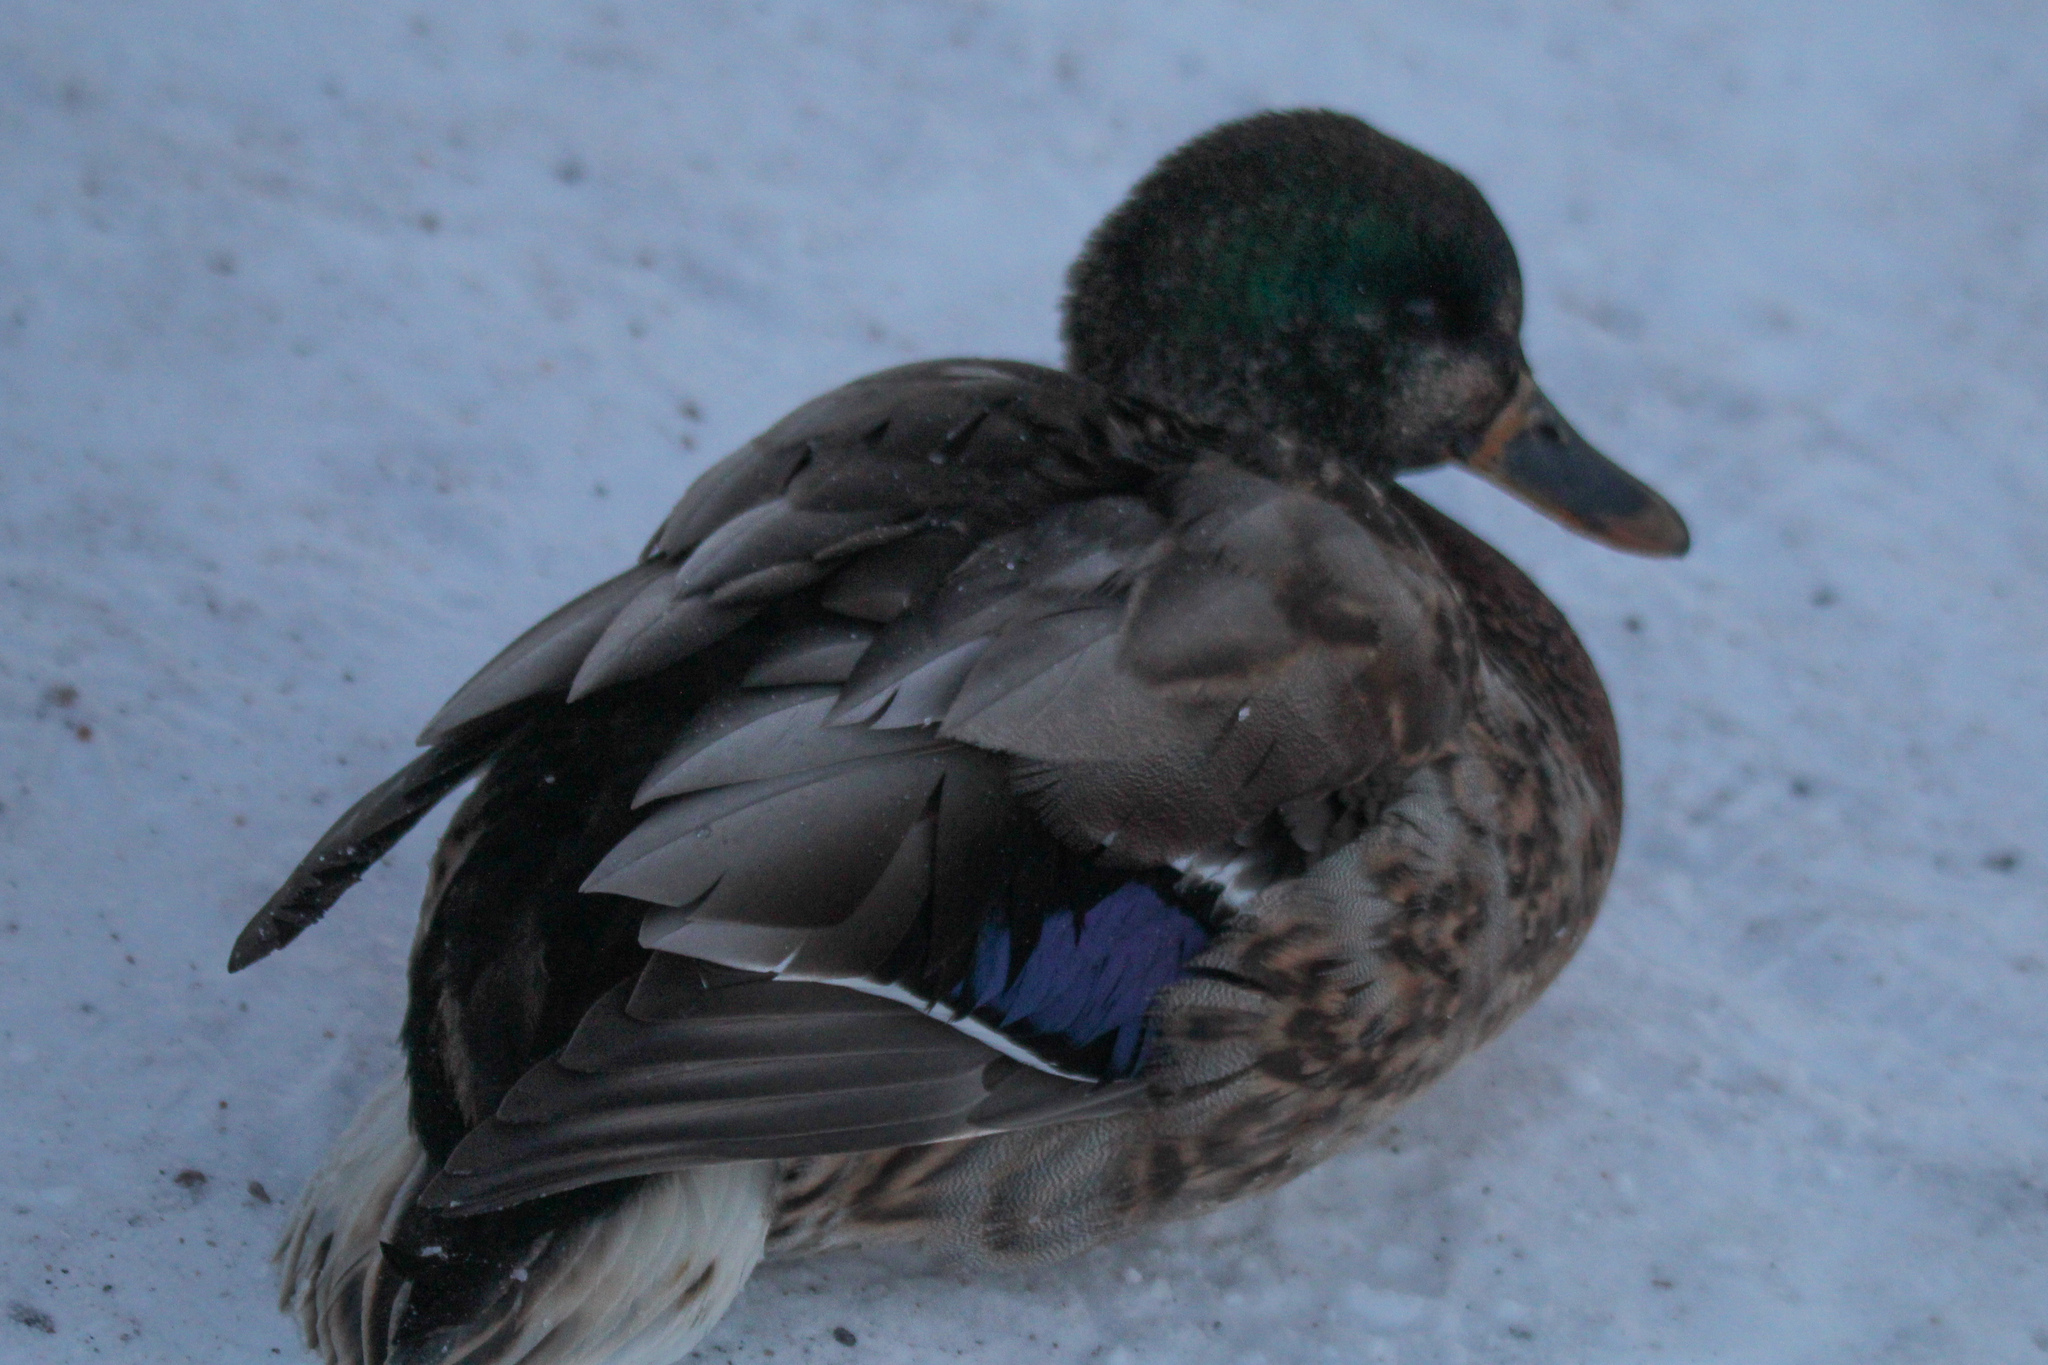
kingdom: Animalia
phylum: Chordata
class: Aves
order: Anseriformes
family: Anatidae
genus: Anas
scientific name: Anas platyrhynchos
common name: Mallard
